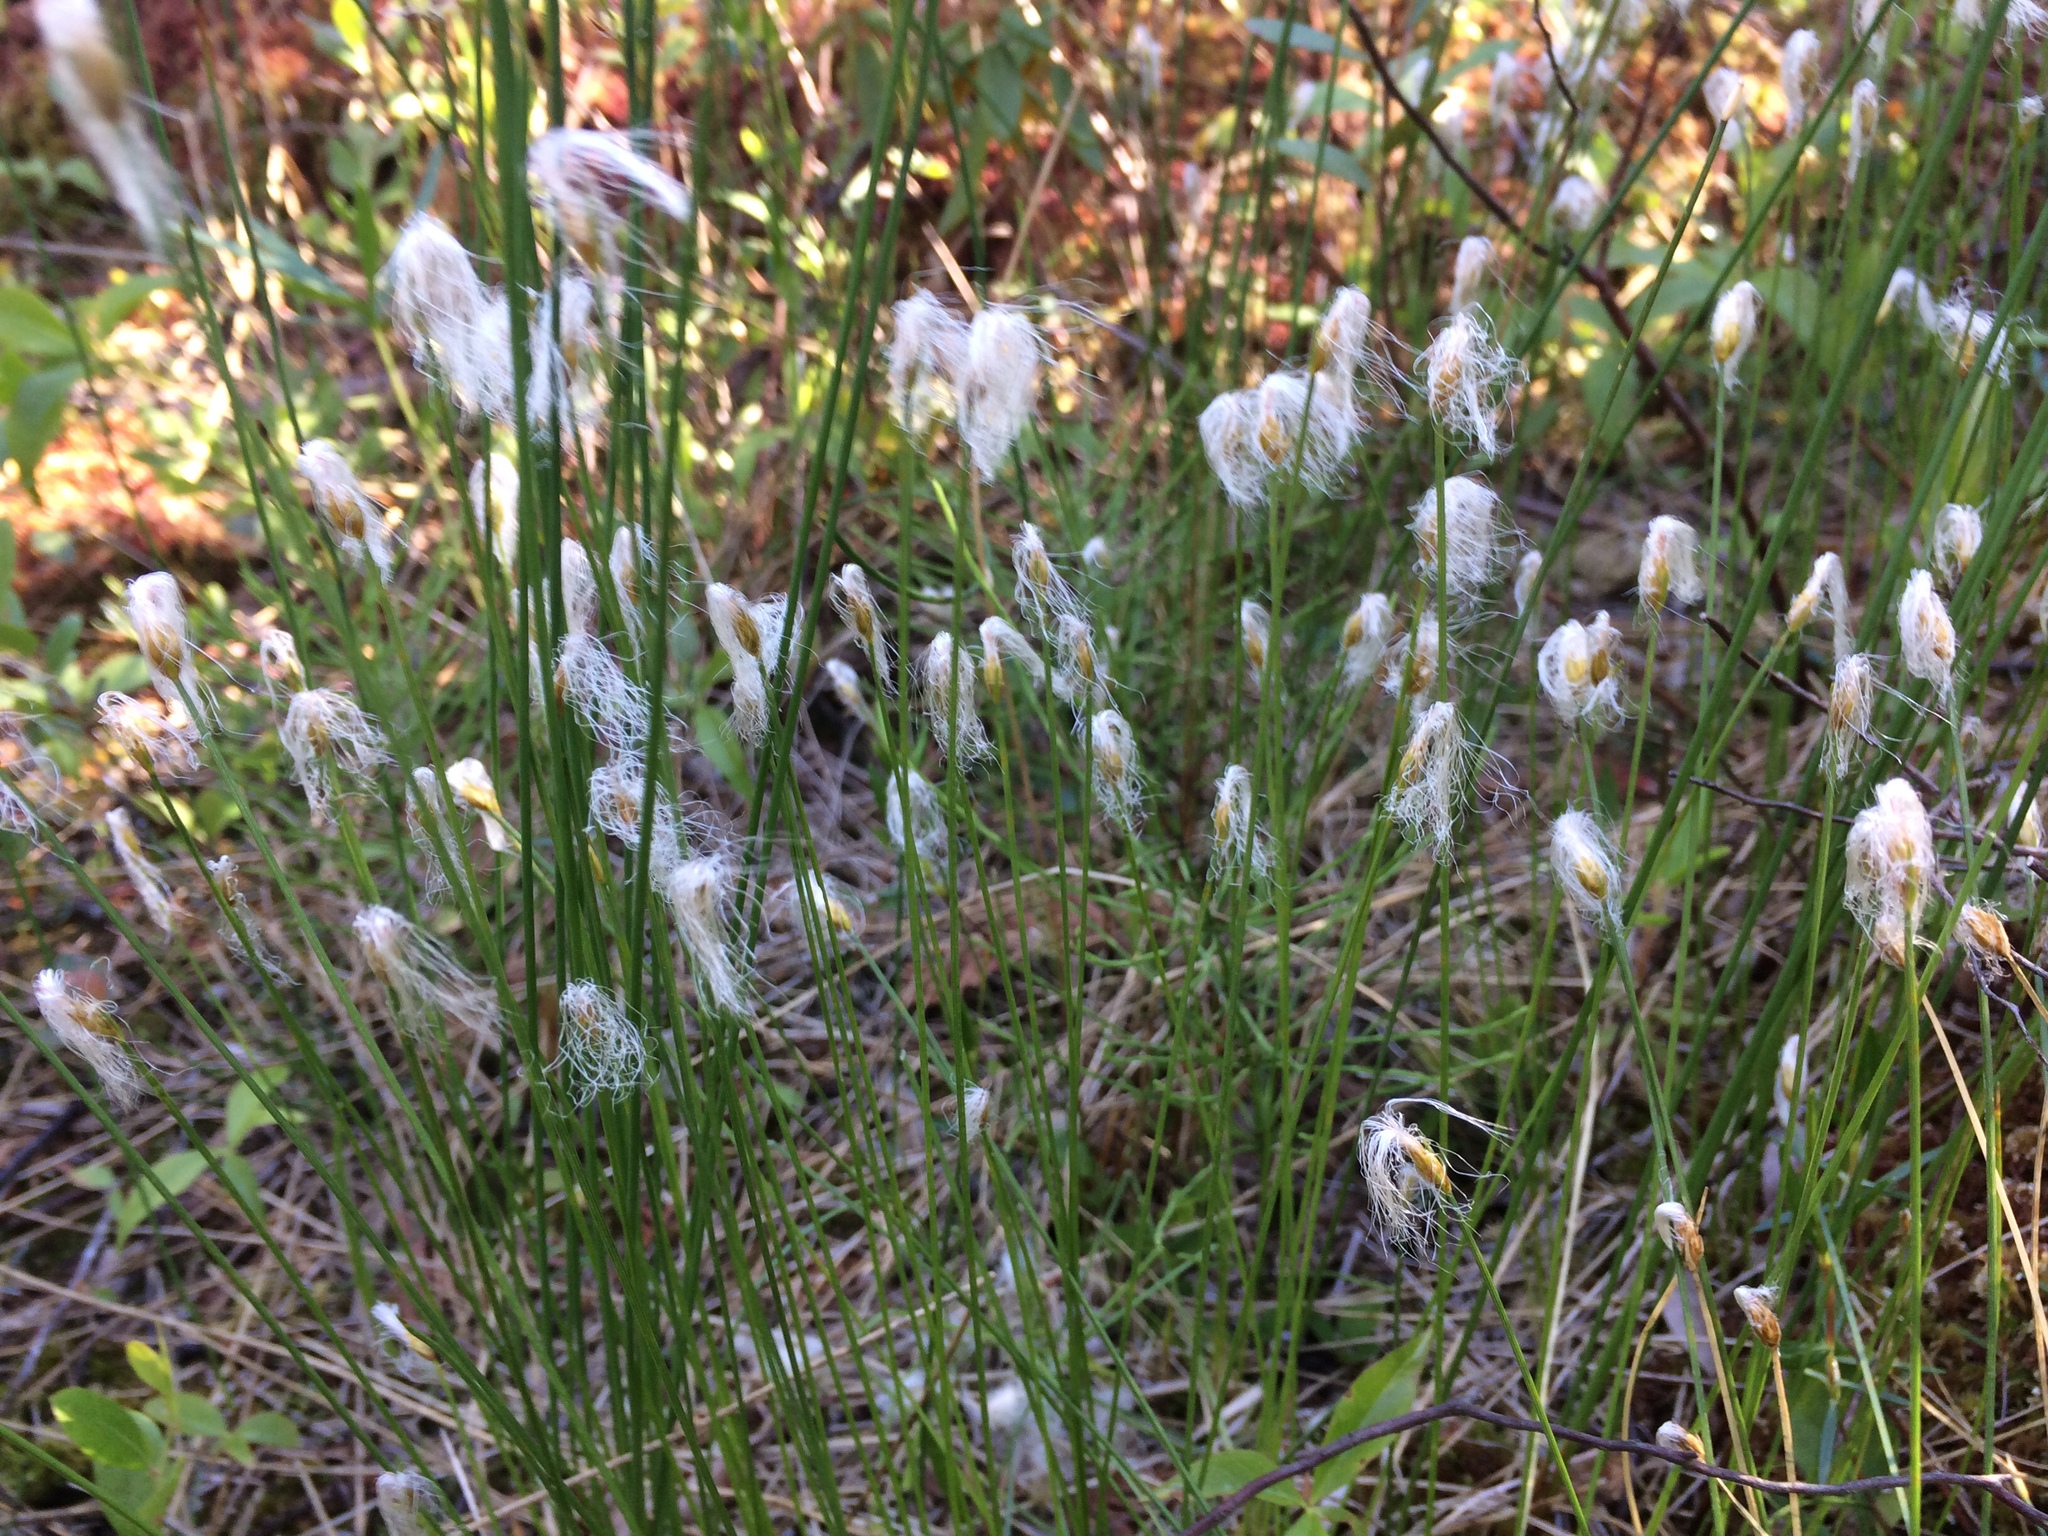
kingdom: Plantae
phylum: Tracheophyta
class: Liliopsida
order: Poales
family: Cyperaceae
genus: Trichophorum
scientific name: Trichophorum alpinum
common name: Alpine bulrush
